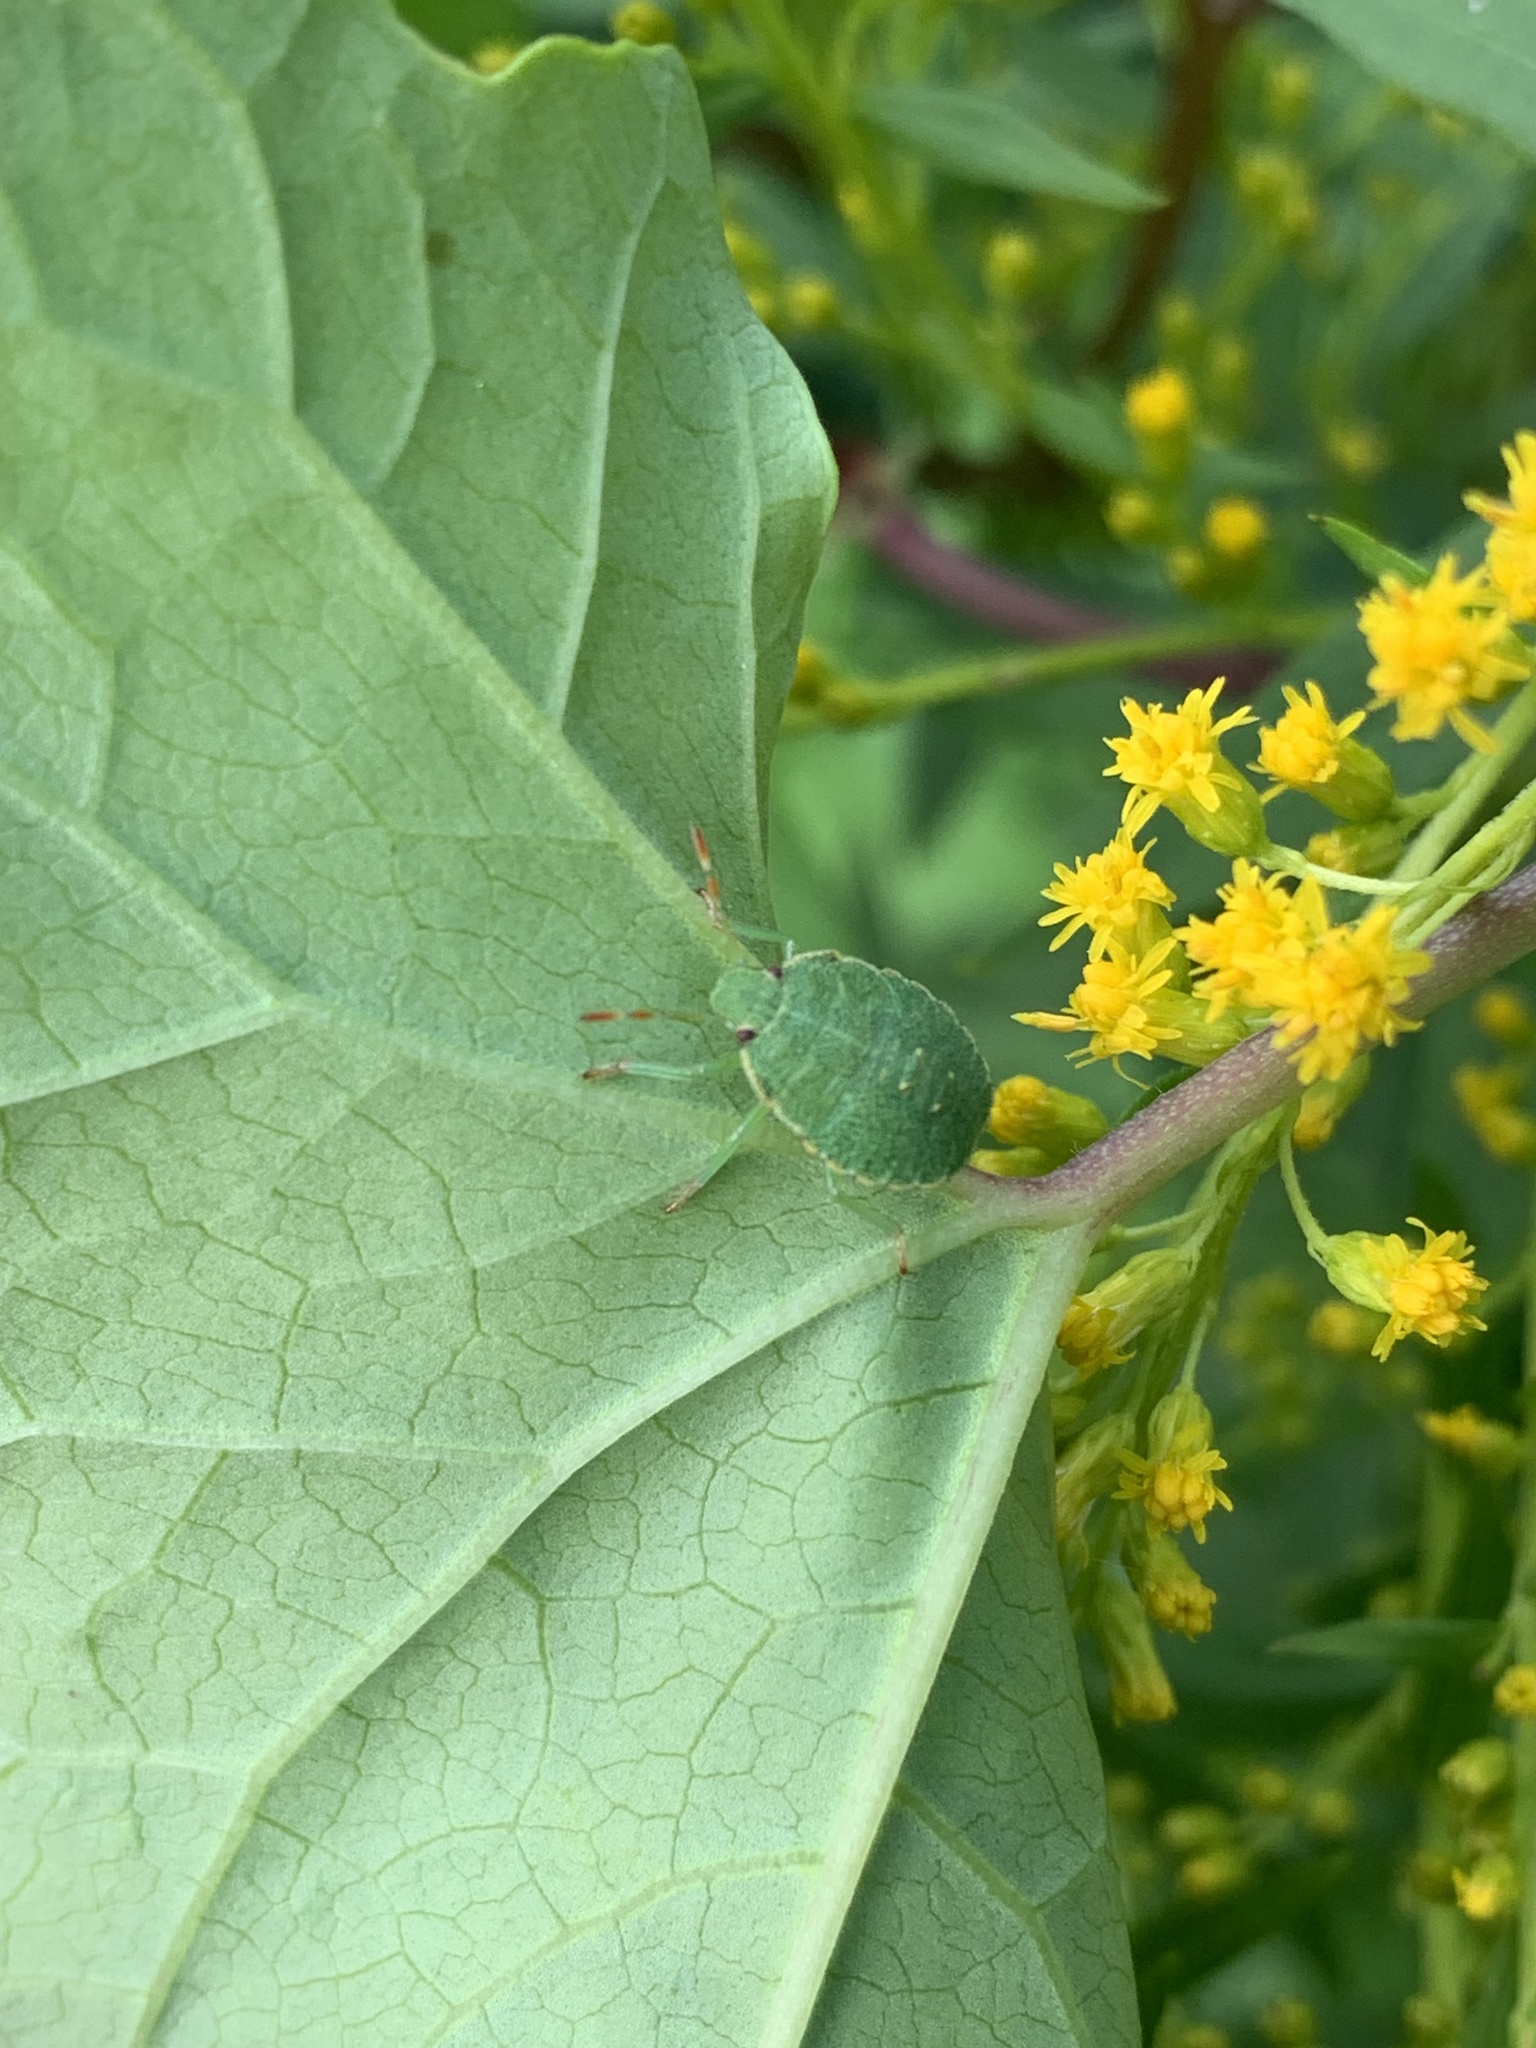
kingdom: Animalia
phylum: Arthropoda
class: Insecta
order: Hemiptera
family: Pentatomidae
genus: Palomena
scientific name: Palomena prasina
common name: Green shieldbug
